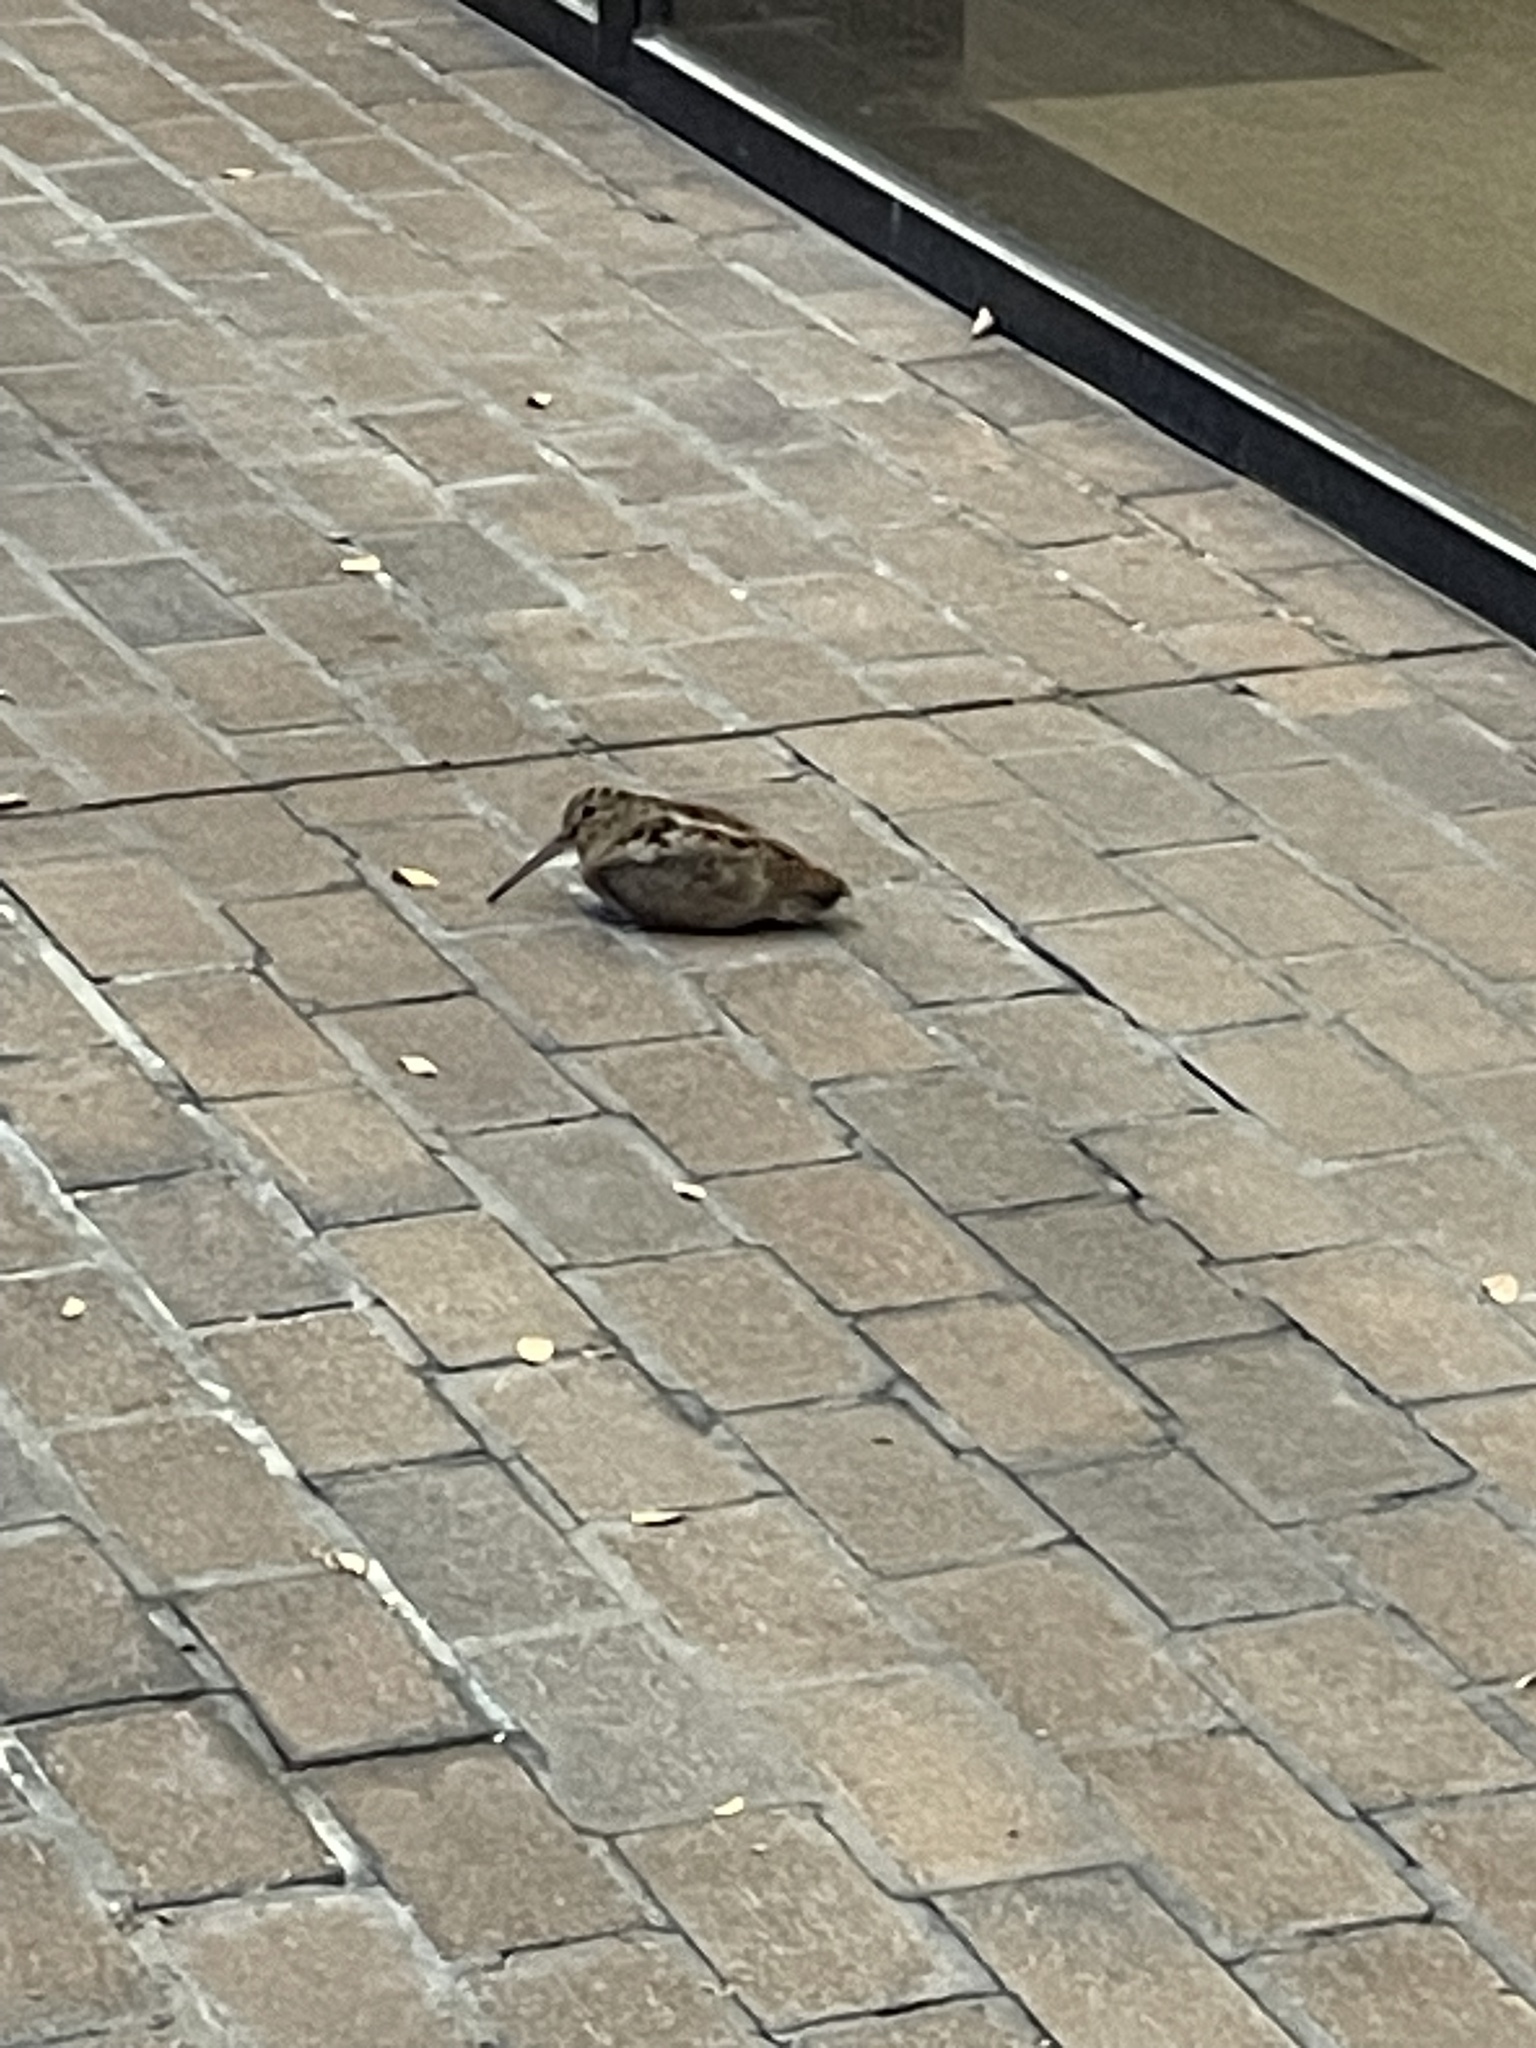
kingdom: Animalia
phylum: Chordata
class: Aves
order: Charadriiformes
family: Scolopacidae
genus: Scolopax
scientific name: Scolopax minor
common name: American woodcock
